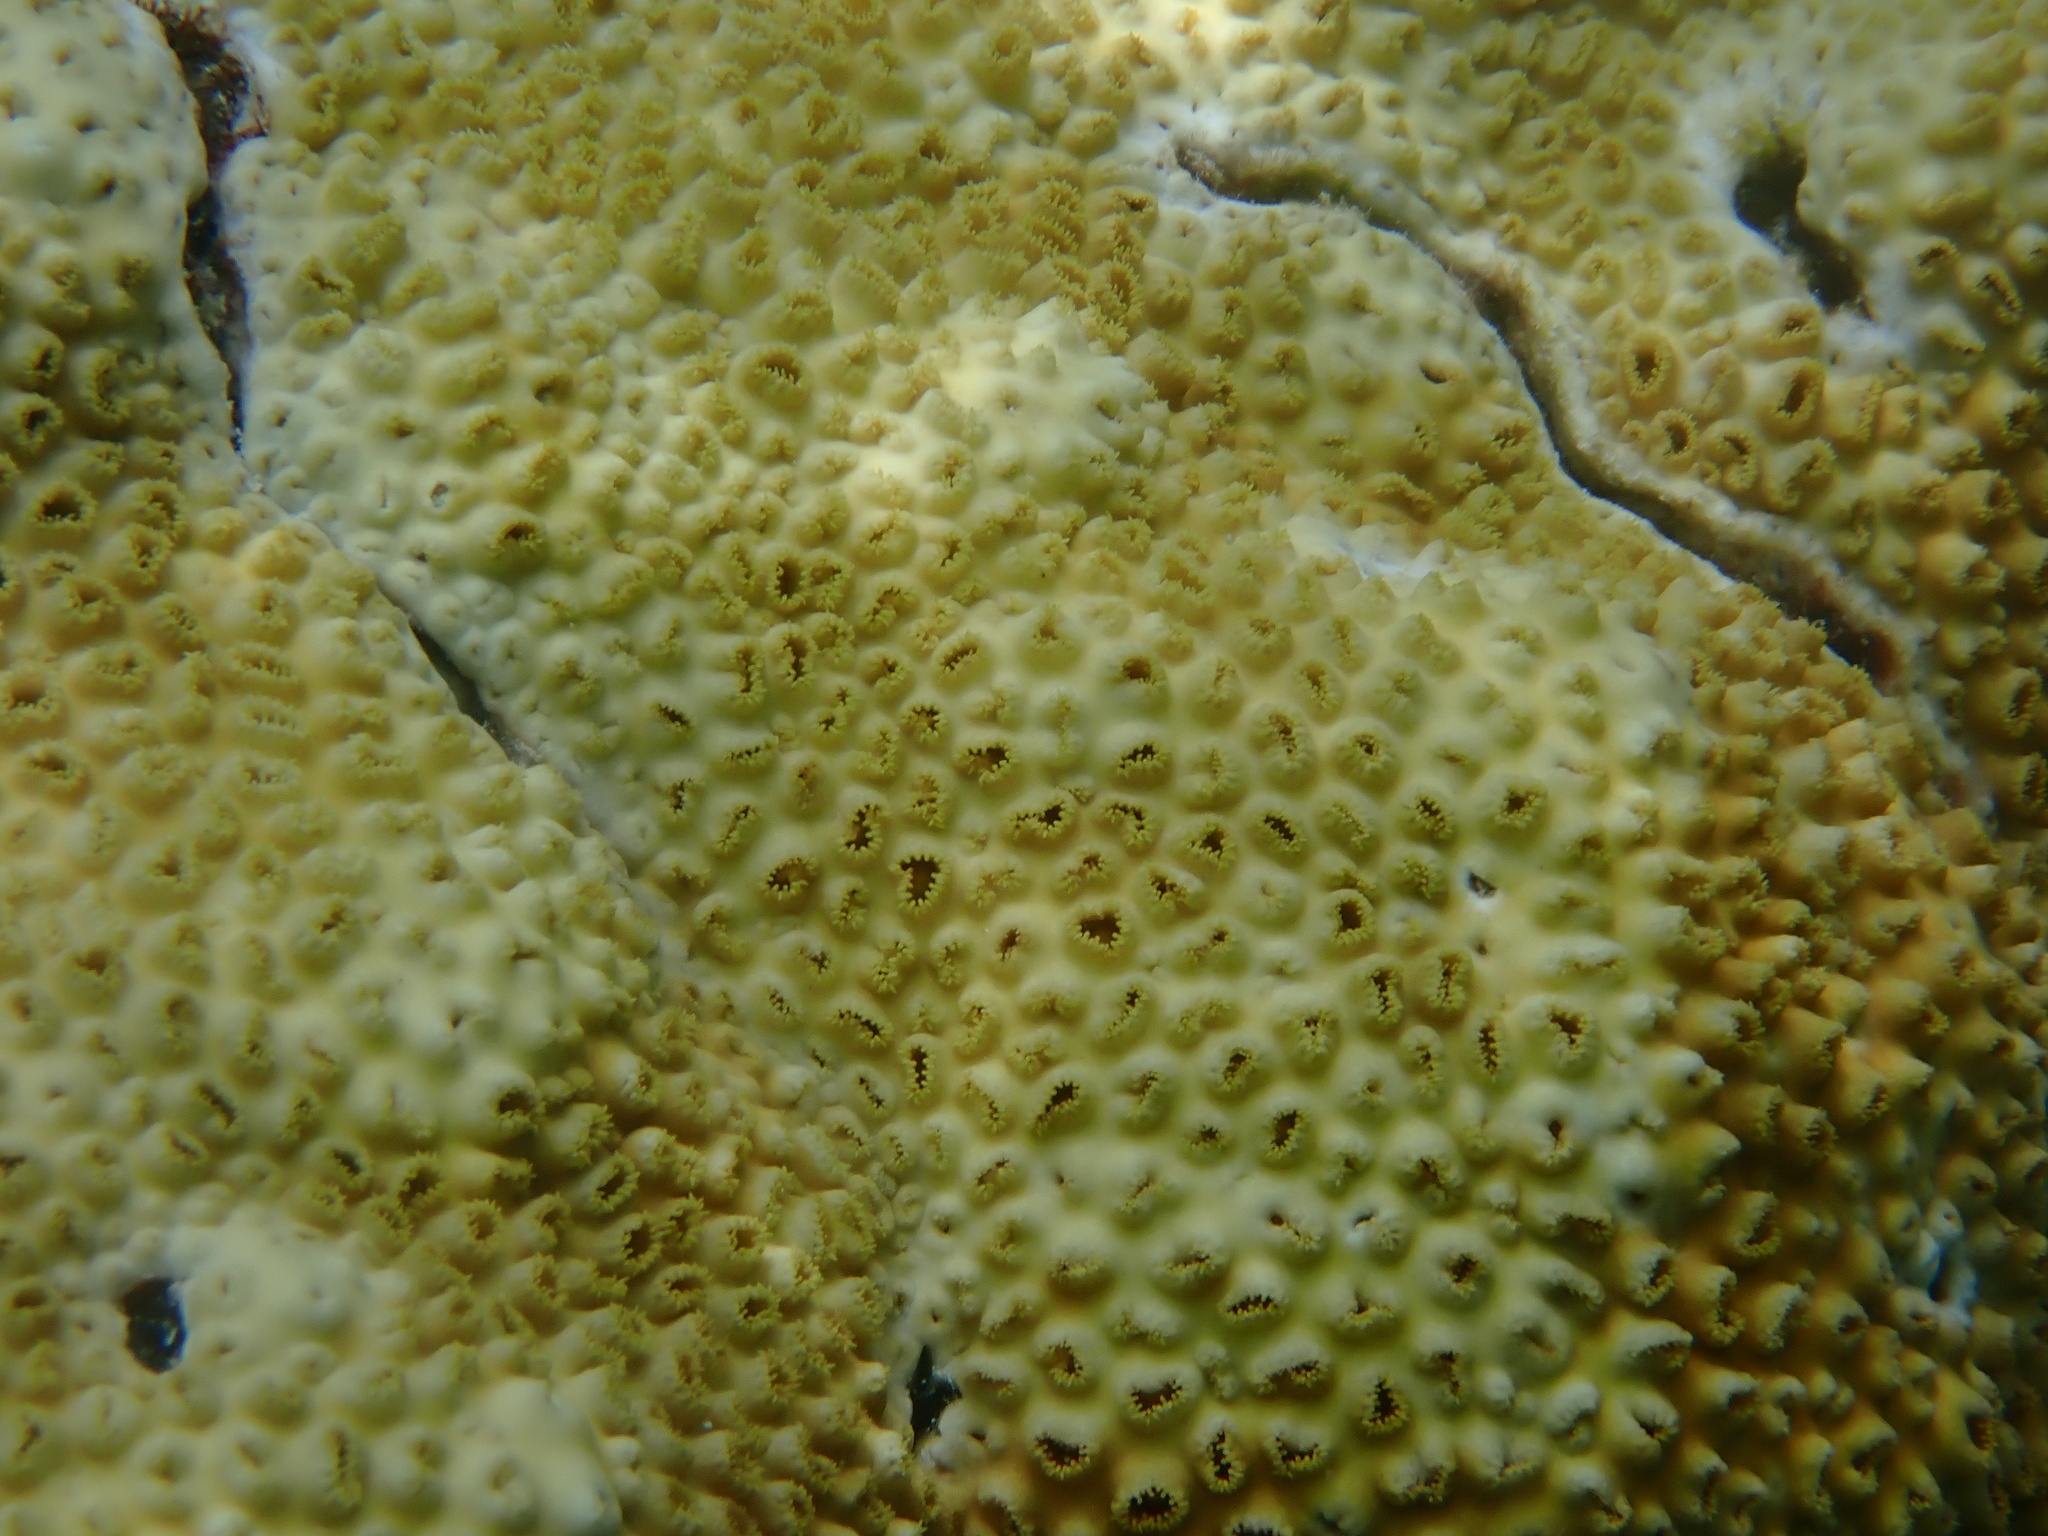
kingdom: Animalia
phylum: Cnidaria
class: Anthozoa
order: Zoantharia
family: Sphenopidae
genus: Palythoa
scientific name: Palythoa caribaeorum
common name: Encrusting colonial anemone
